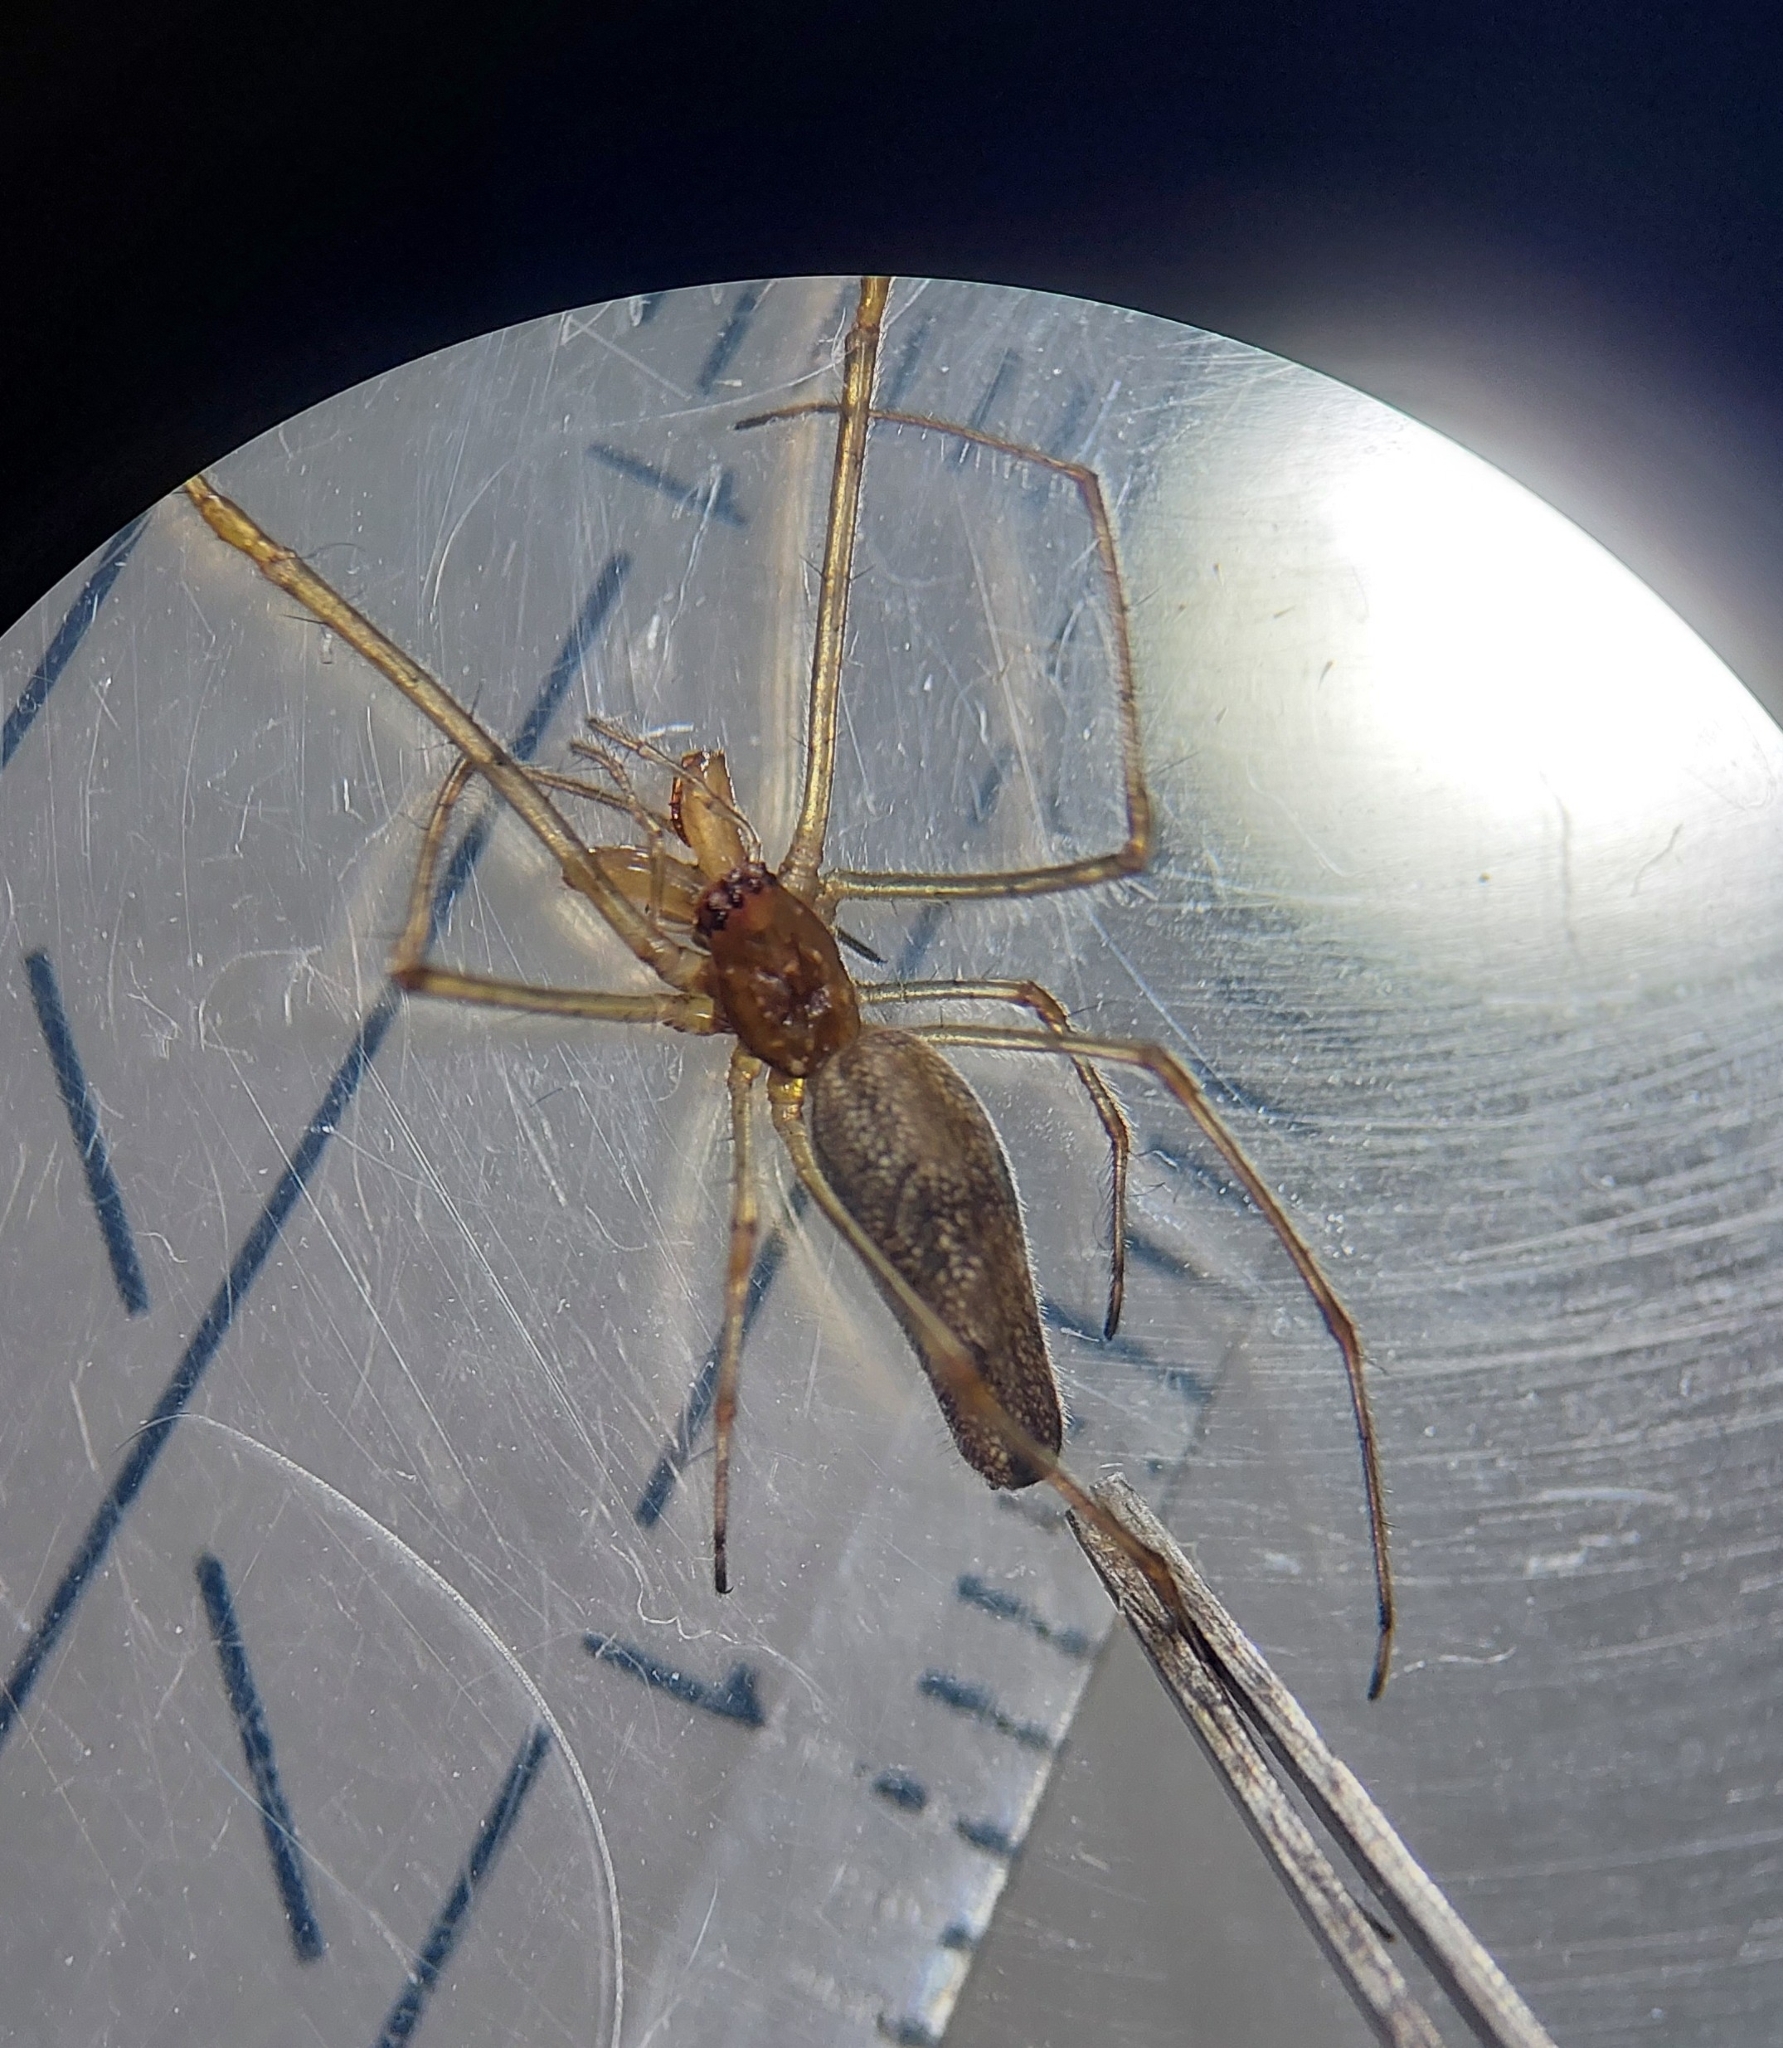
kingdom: Animalia
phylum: Arthropoda
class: Arachnida
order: Araneae
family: Tetragnathidae
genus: Tetragnatha
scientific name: Tetragnatha montana
